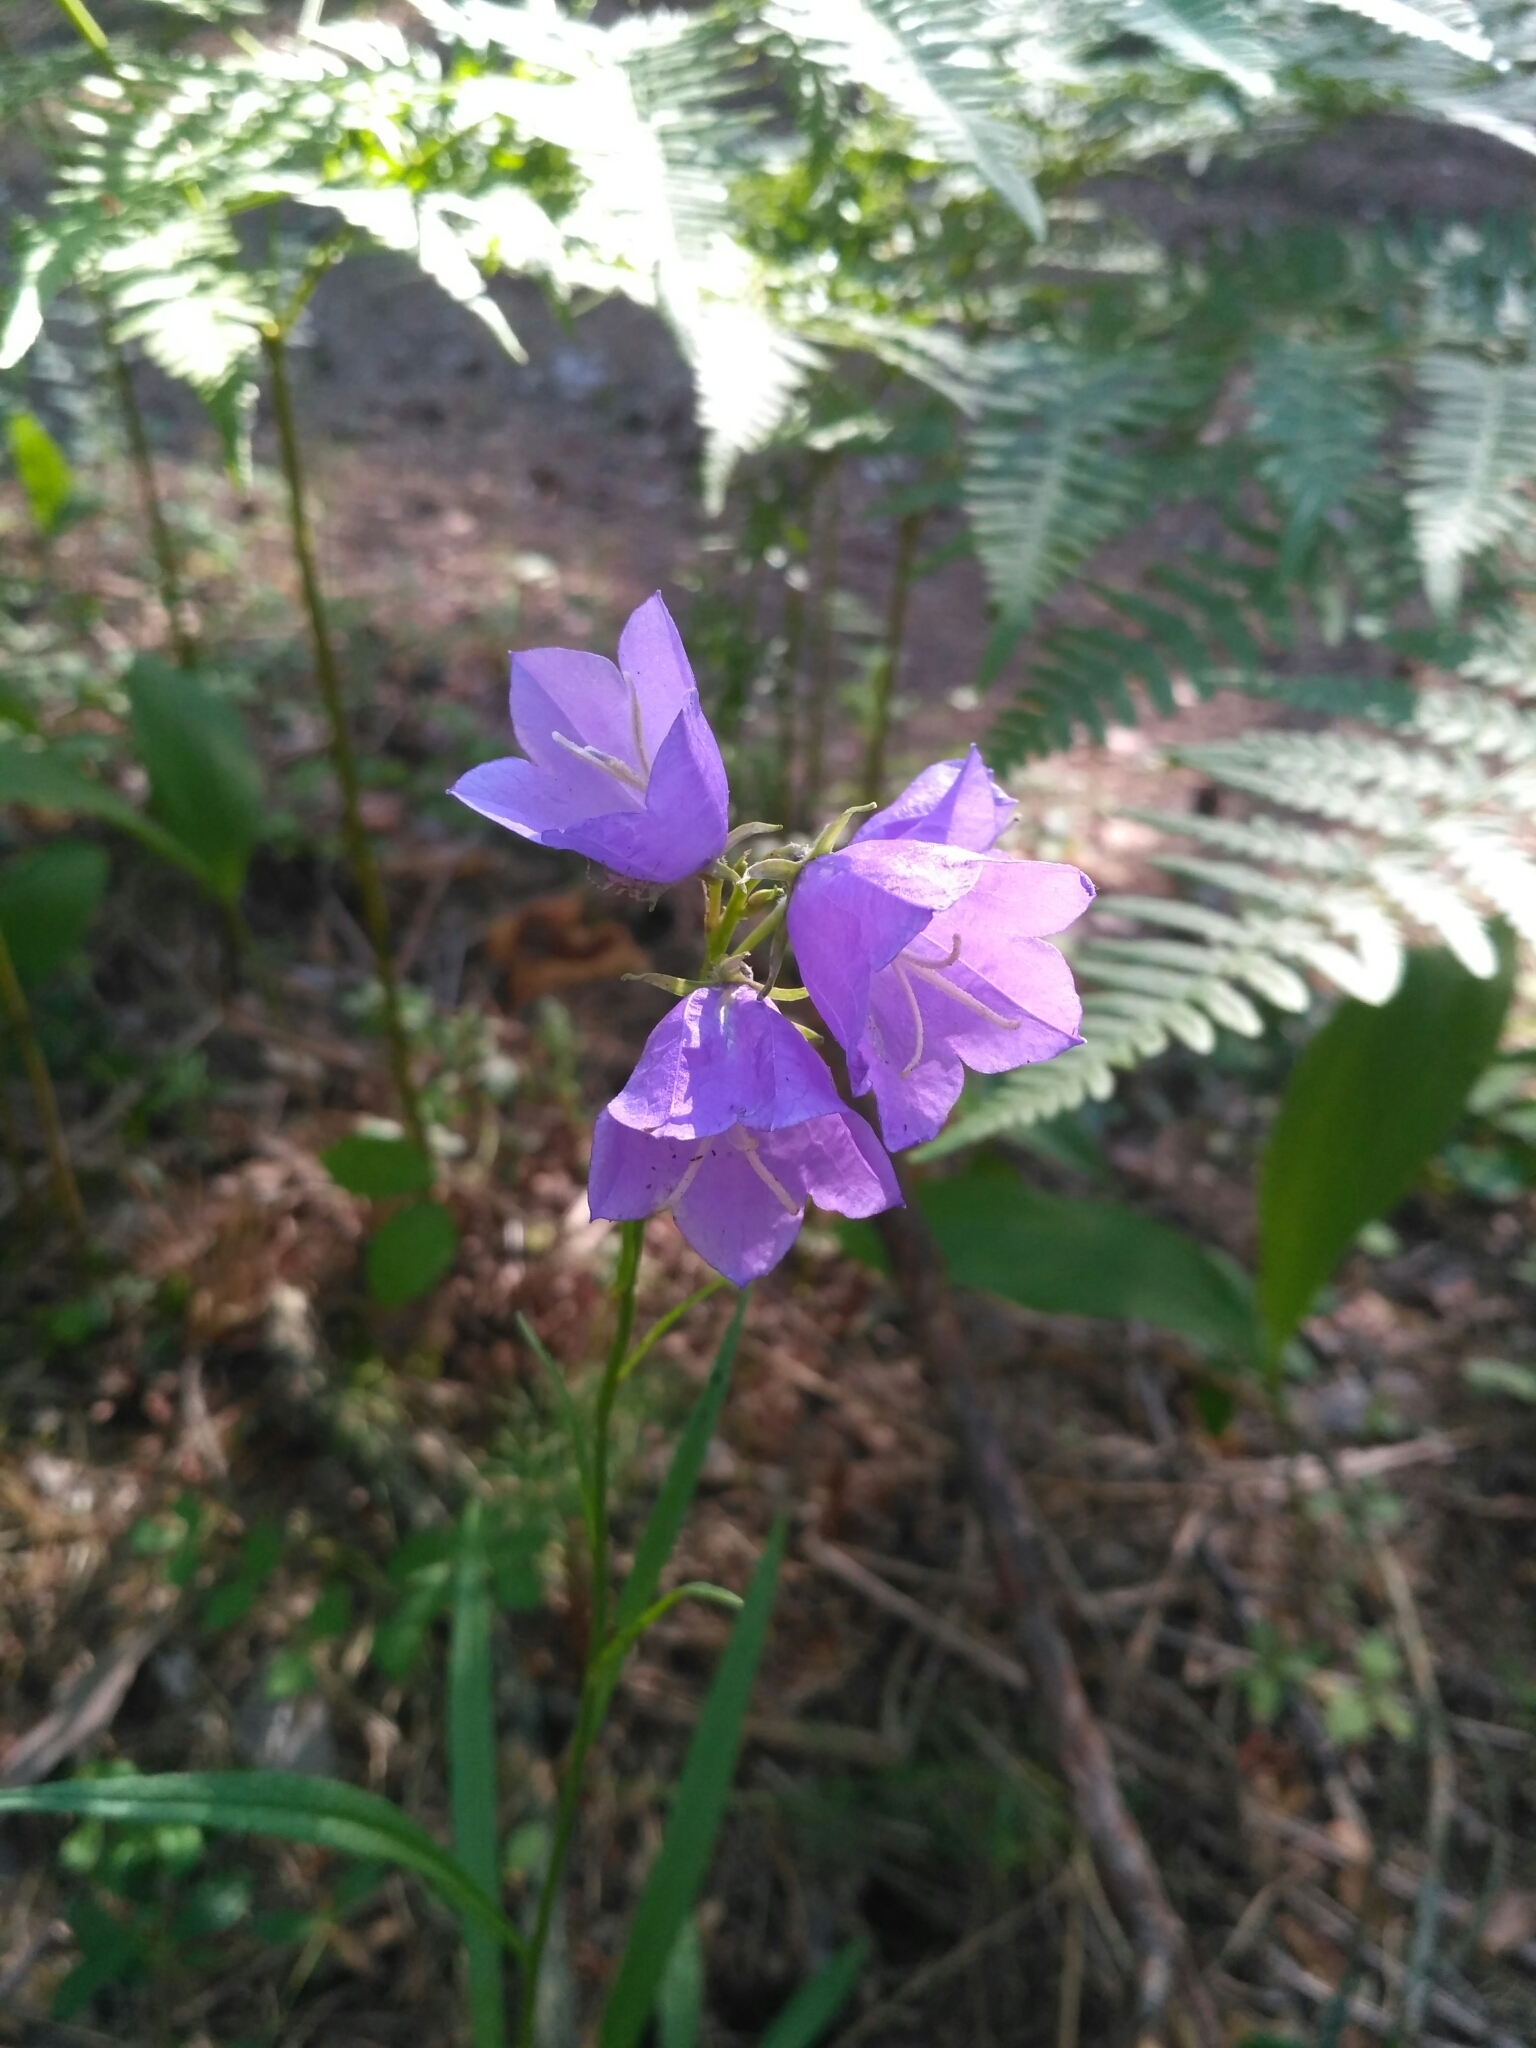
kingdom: Plantae
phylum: Tracheophyta
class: Magnoliopsida
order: Asterales
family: Campanulaceae
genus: Campanula
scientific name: Campanula persicifolia
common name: Peach-leaved bellflower
